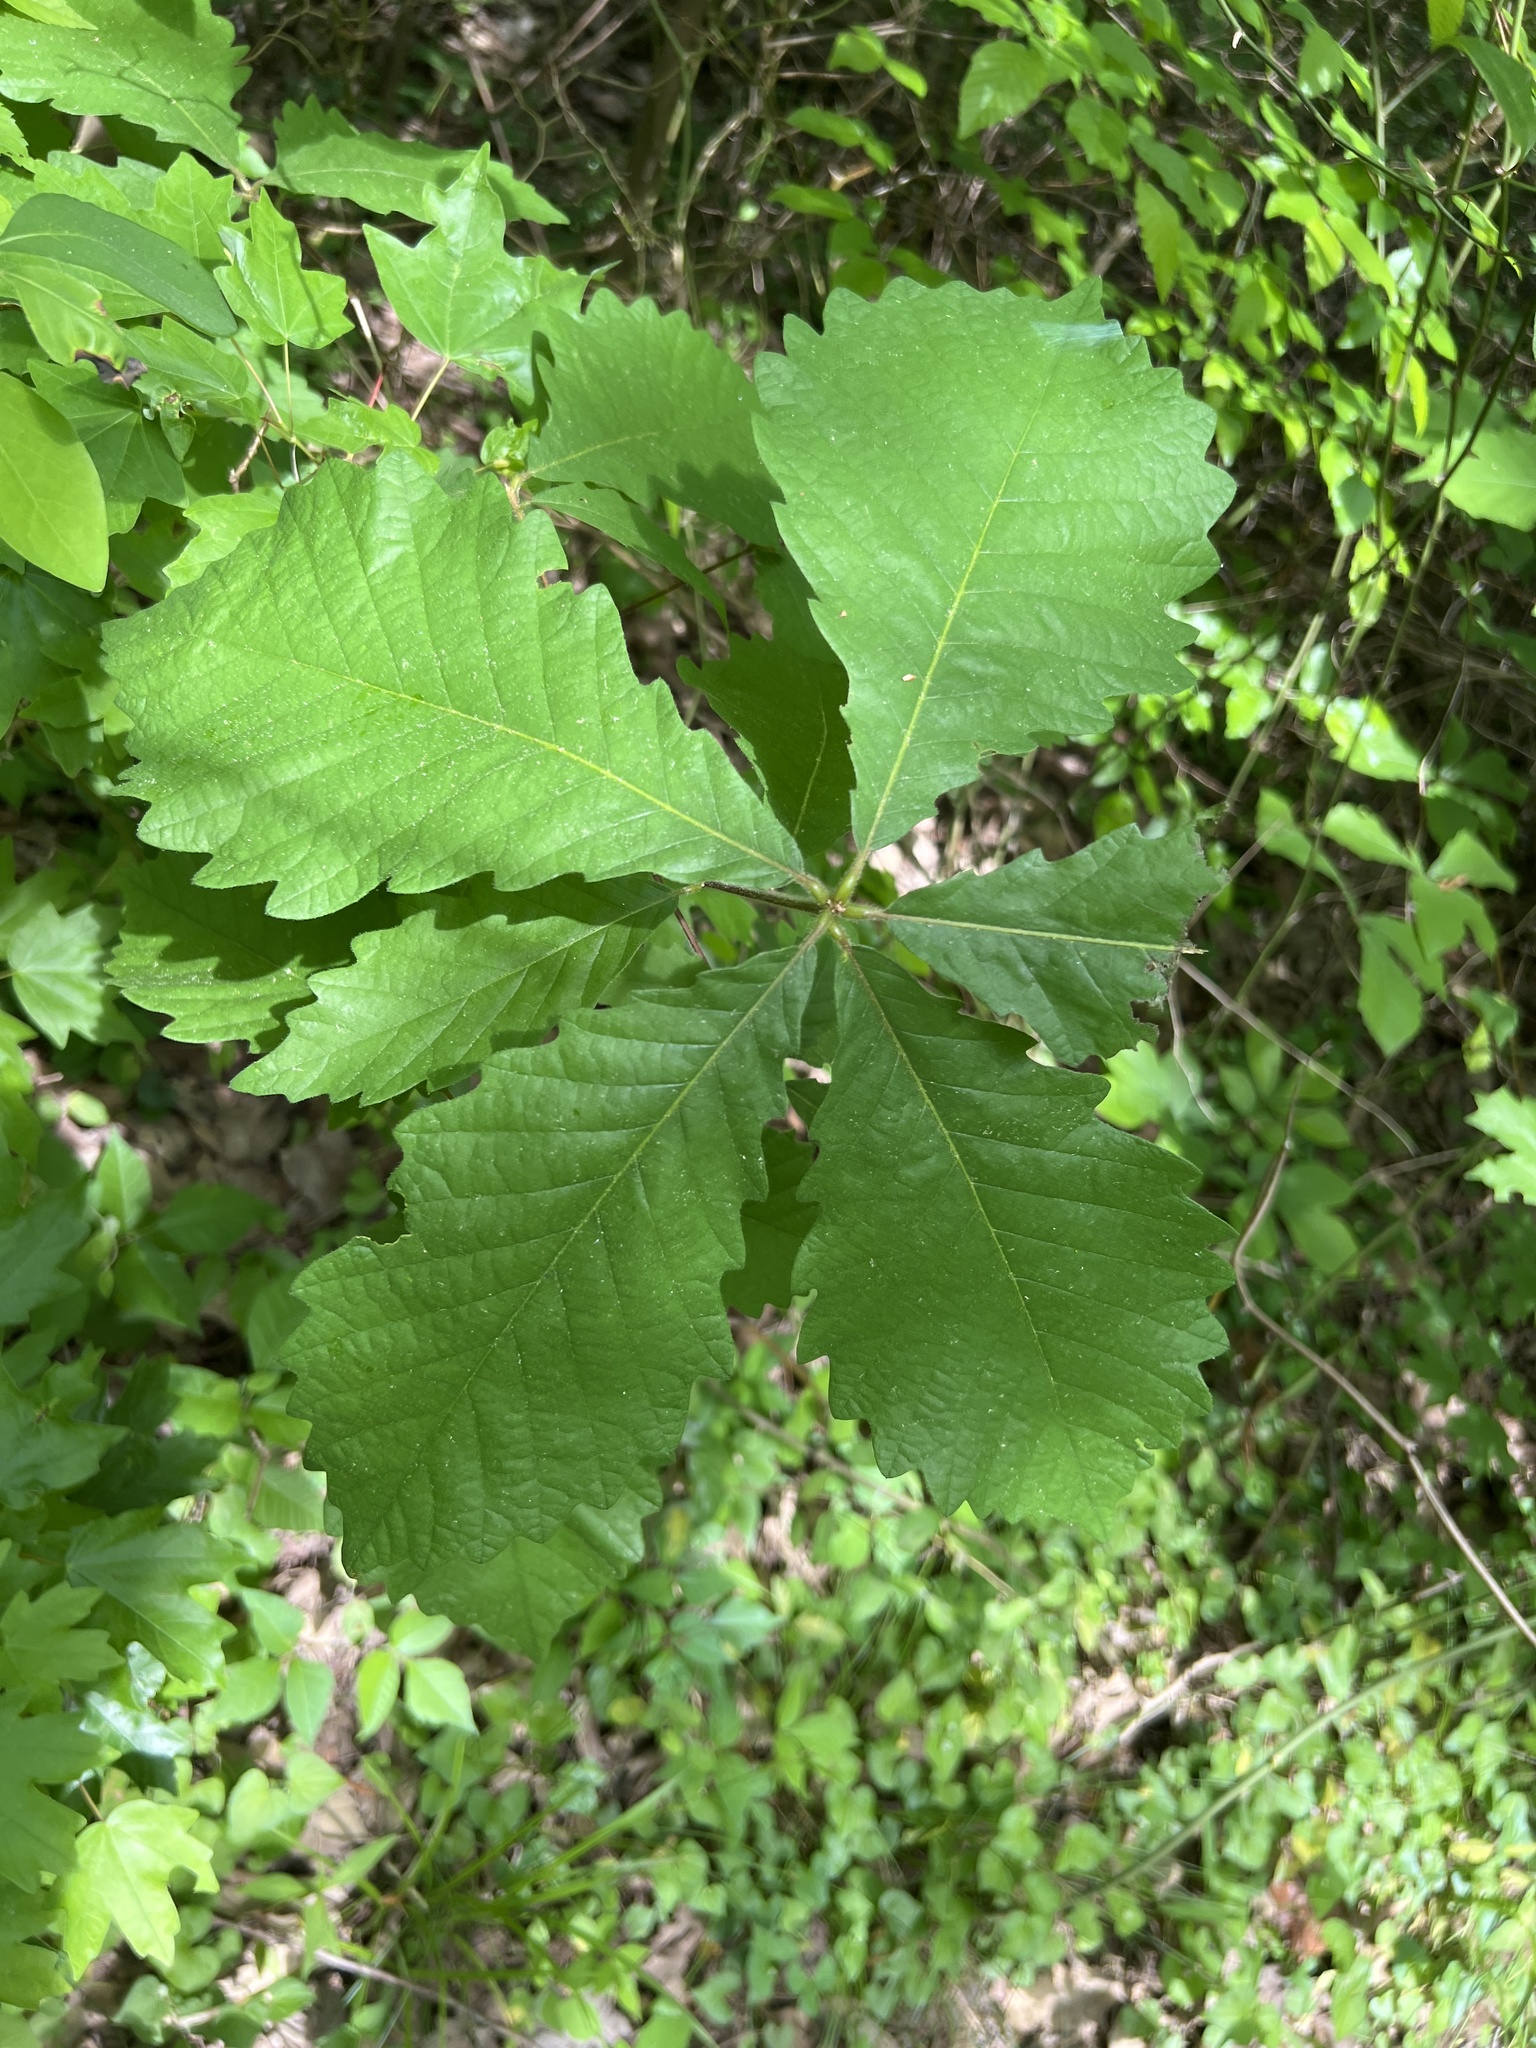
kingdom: Plantae
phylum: Tracheophyta
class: Magnoliopsida
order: Fagales
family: Fagaceae
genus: Quercus
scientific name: Quercus michauxii
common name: Swamp chestnut oak
